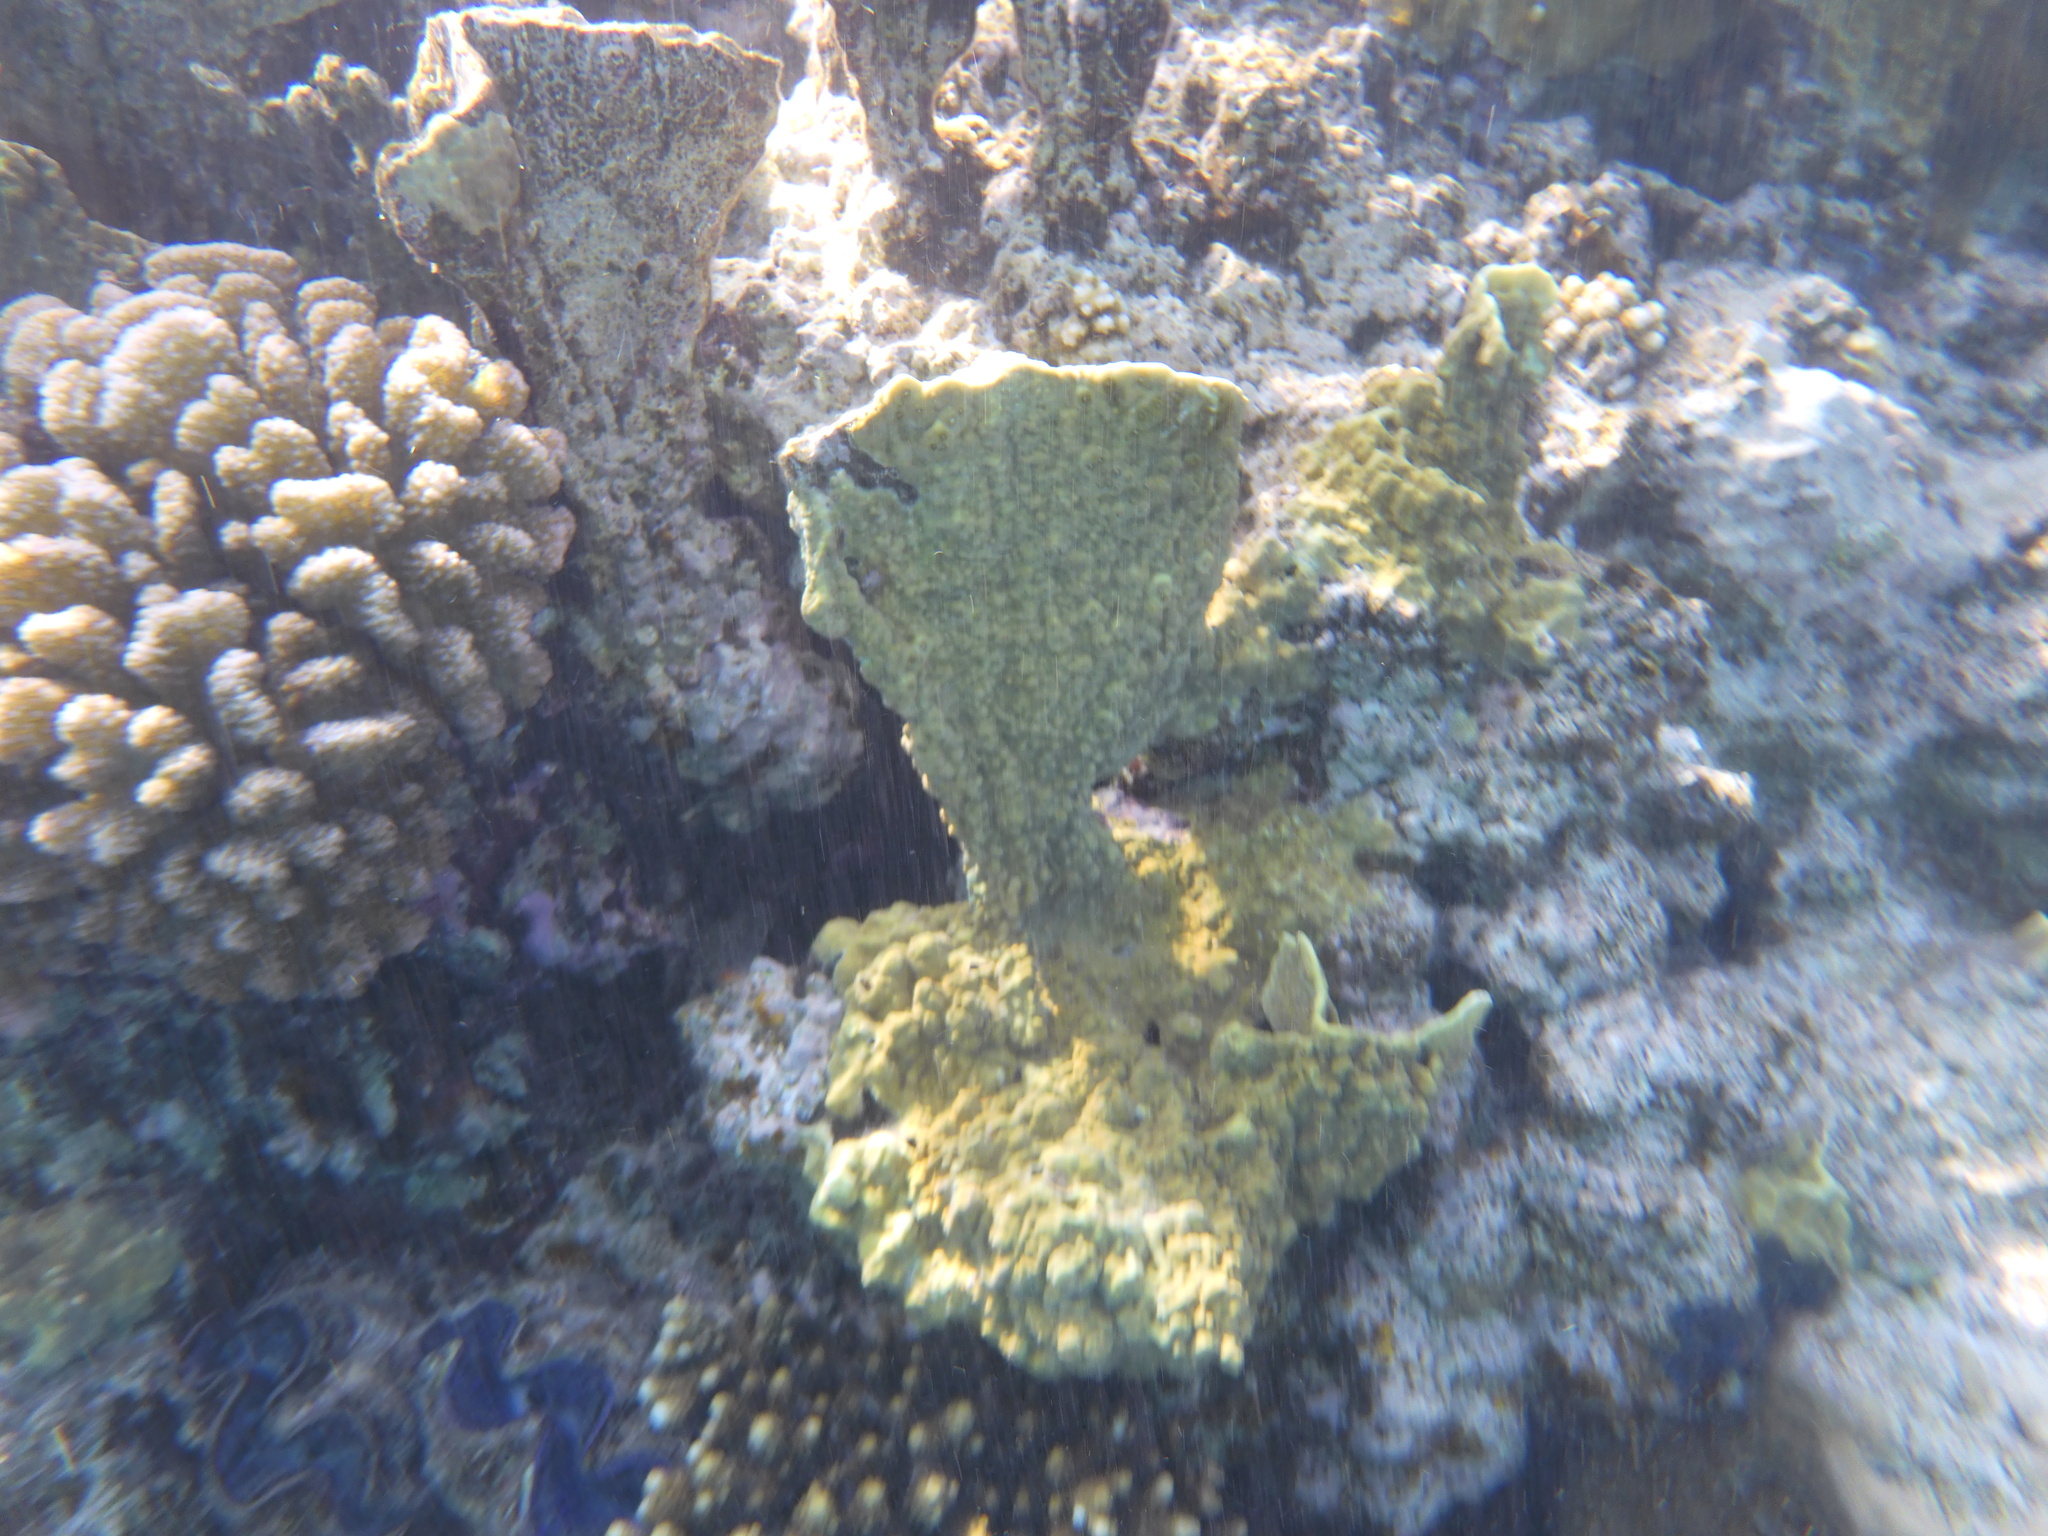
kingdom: Animalia
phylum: Cnidaria
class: Hydrozoa
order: Anthoathecata
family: Milleporidae
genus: Millepora
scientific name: Millepora platyphylla
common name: Sheet fire coral
